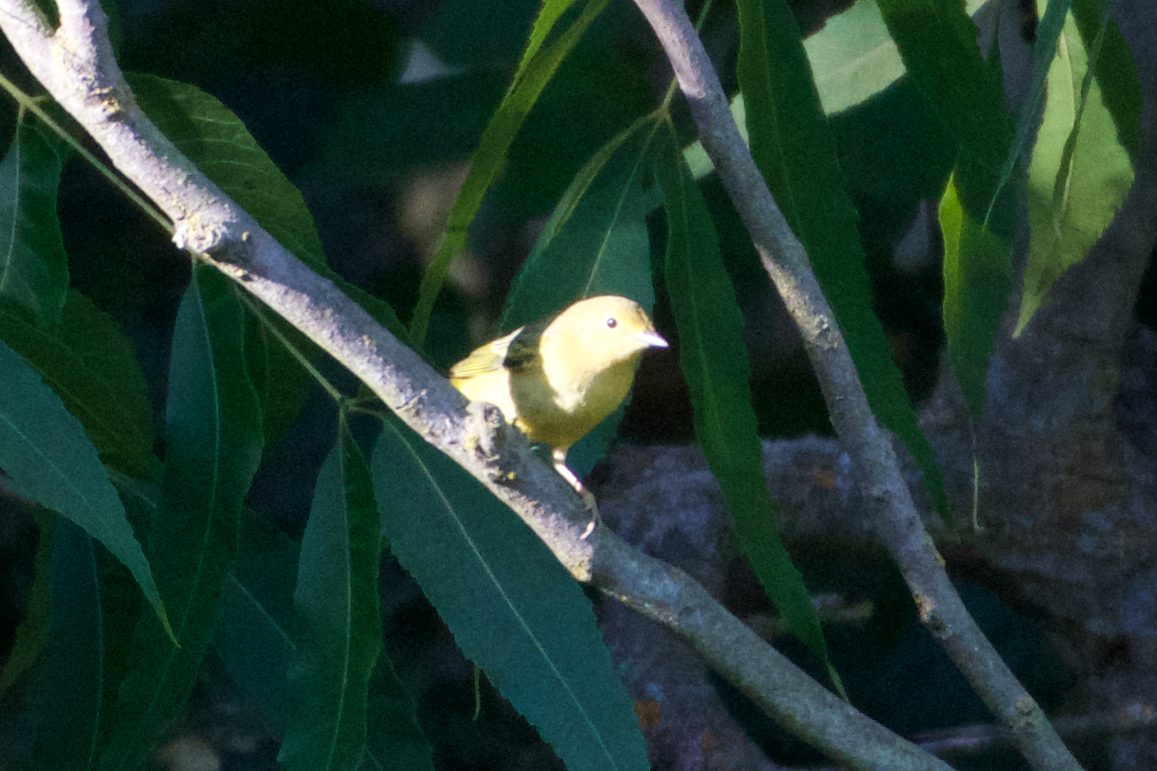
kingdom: Animalia
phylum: Chordata
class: Aves
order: Passeriformes
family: Parulidae
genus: Setophaga
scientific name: Setophaga petechia
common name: Yellow warbler
